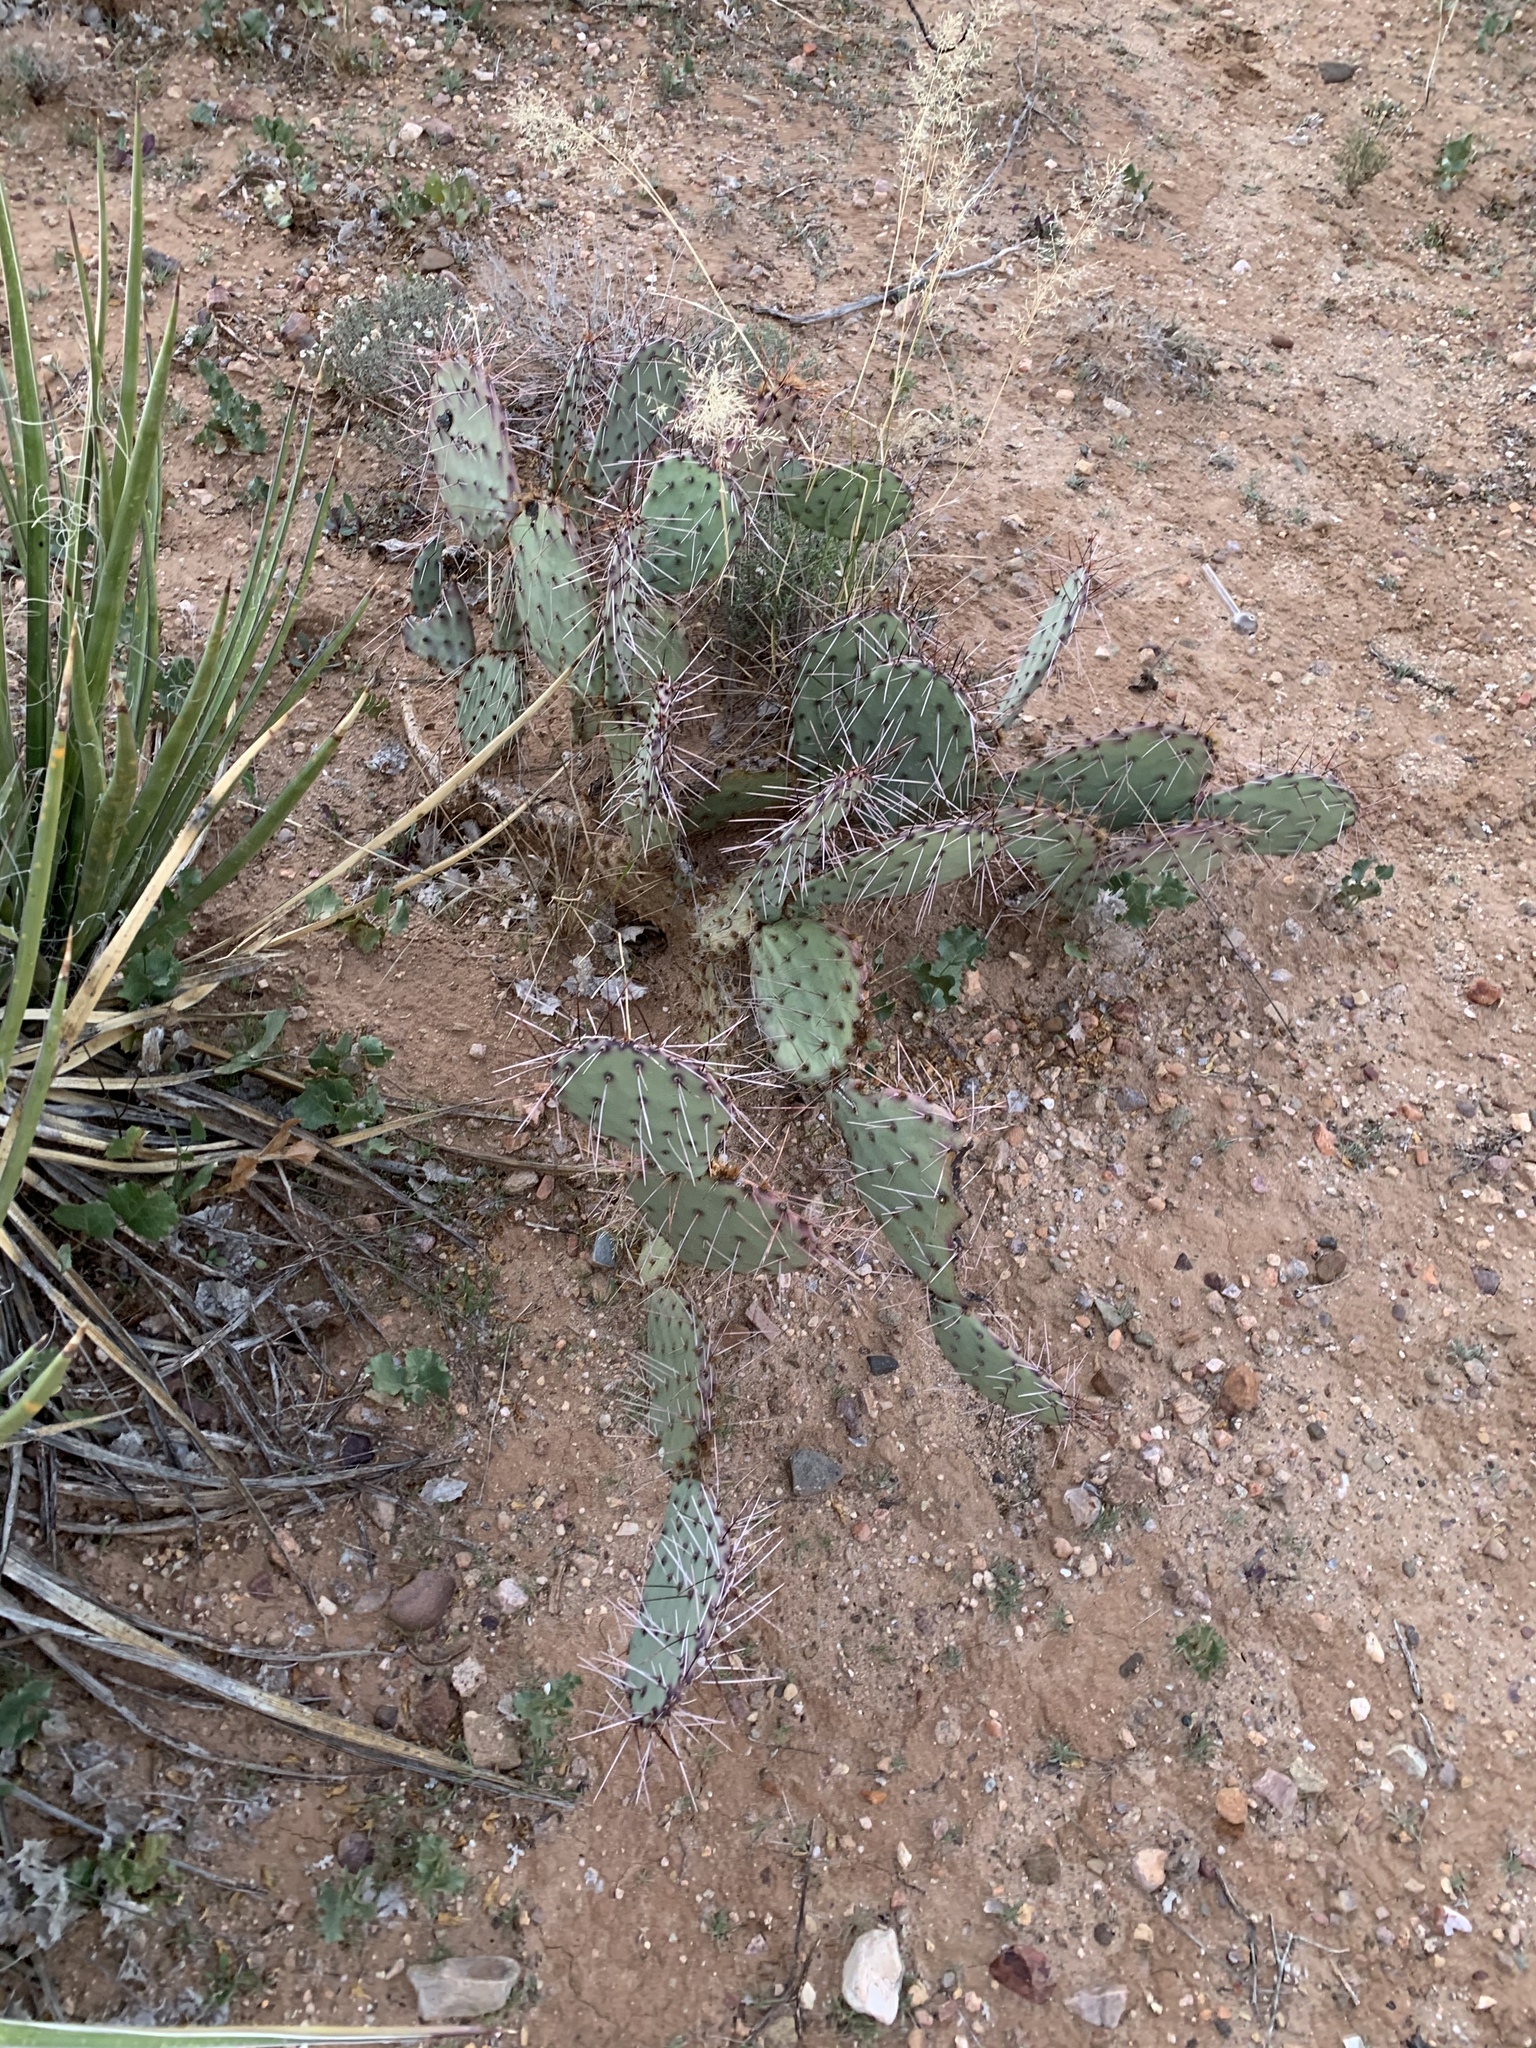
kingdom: Plantae
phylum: Tracheophyta
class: Magnoliopsida
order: Caryophyllales
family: Cactaceae
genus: Opuntia
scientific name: Opuntia phaeacantha
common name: New mexico prickly-pear
